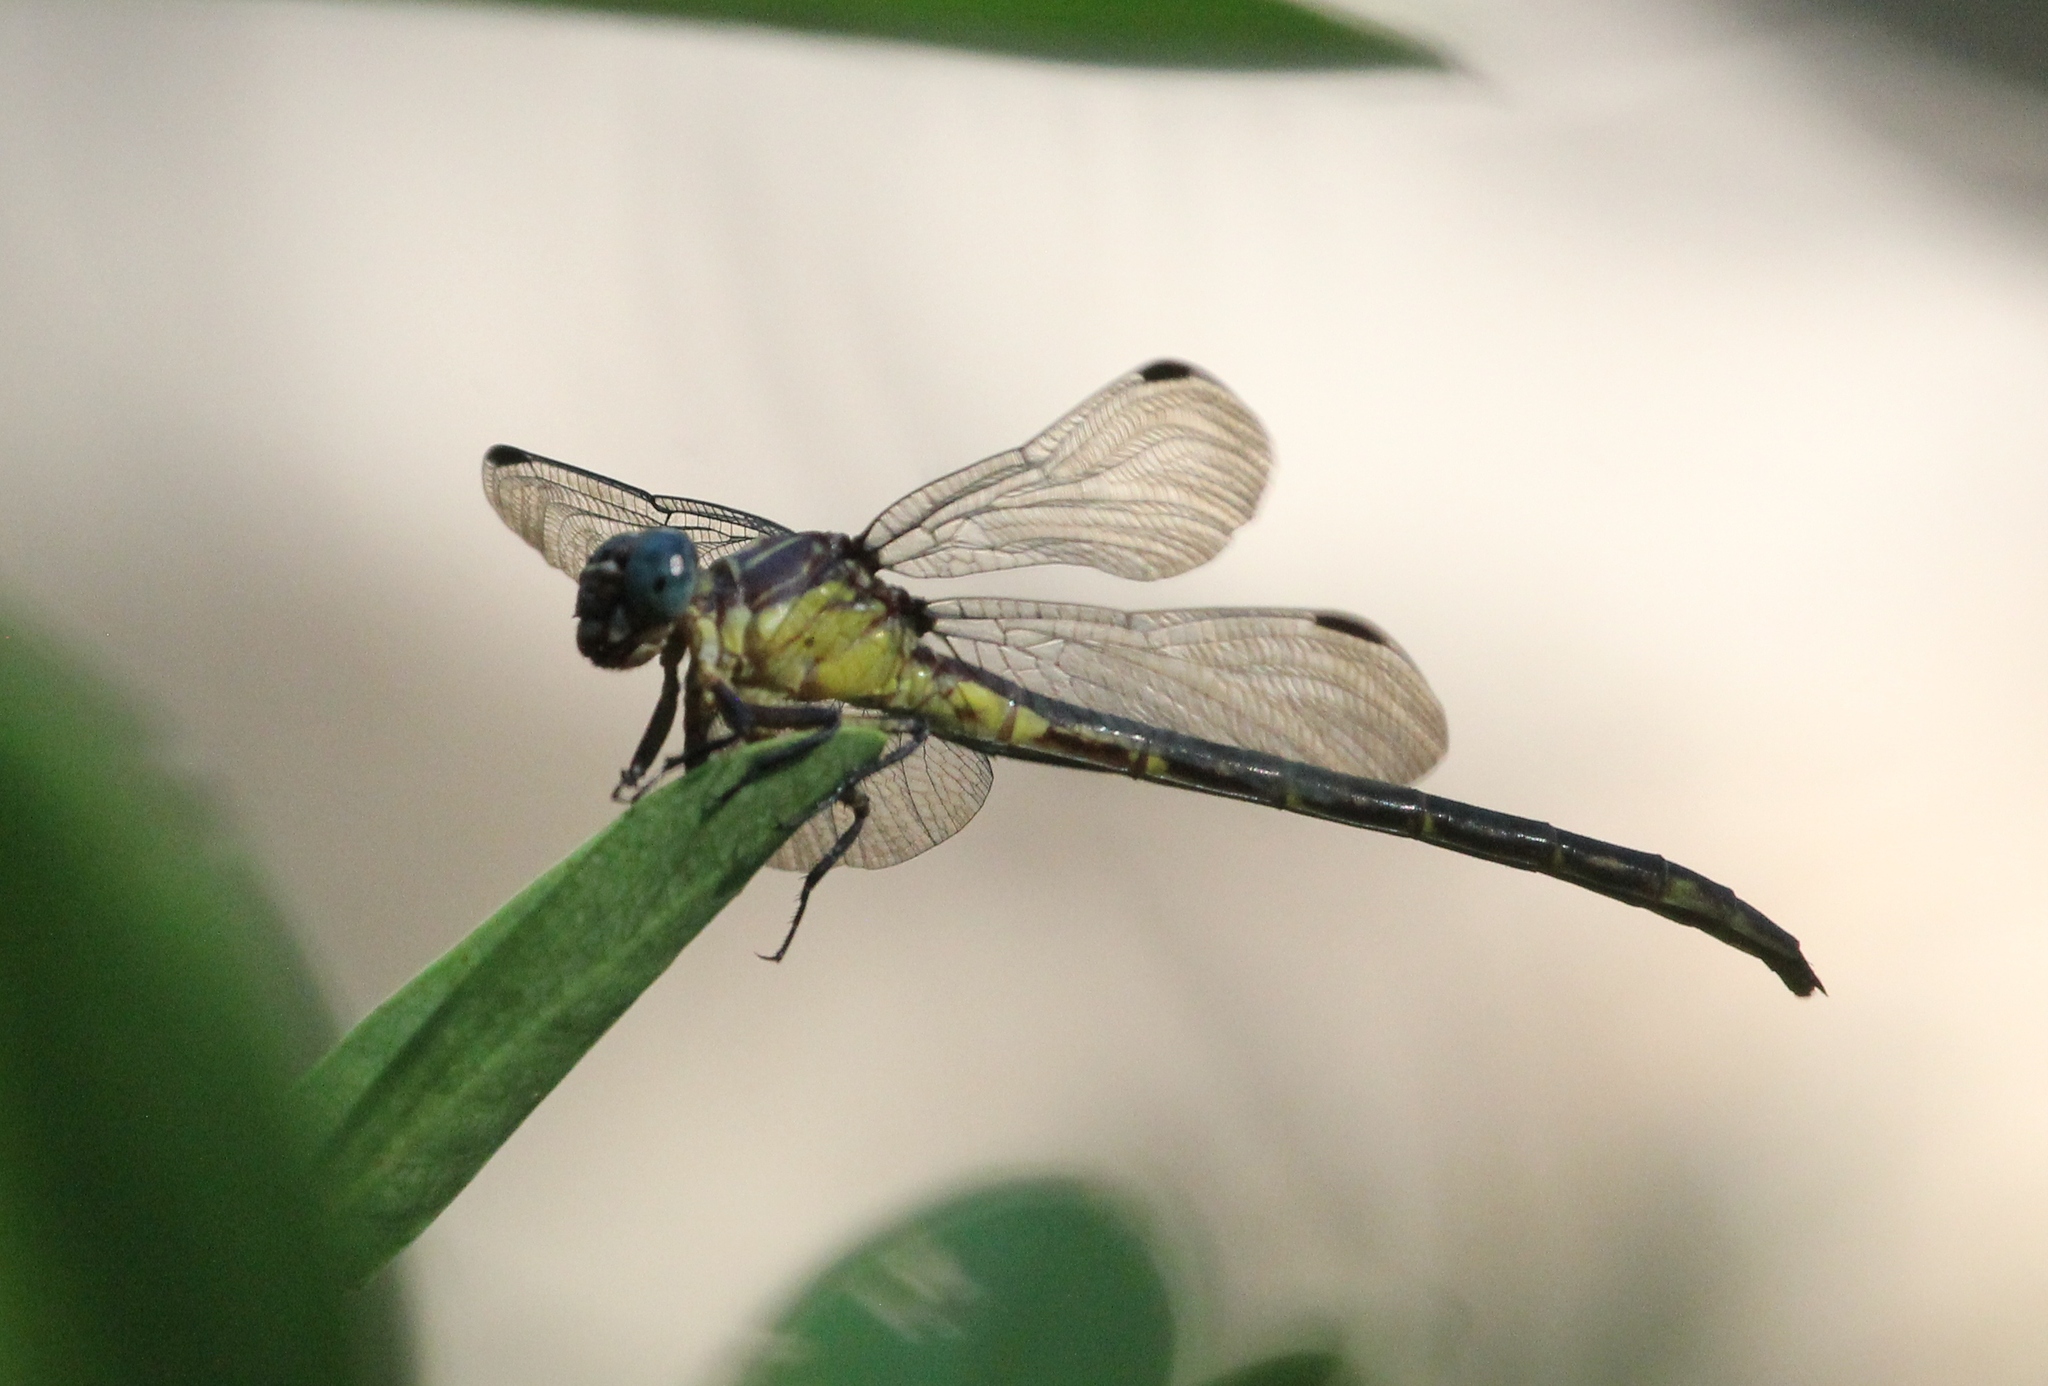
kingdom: Animalia
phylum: Arthropoda
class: Insecta
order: Odonata
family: Gomphidae
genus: Stylurus
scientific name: Stylurus potulentus
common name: Yellow-sided clubtail
